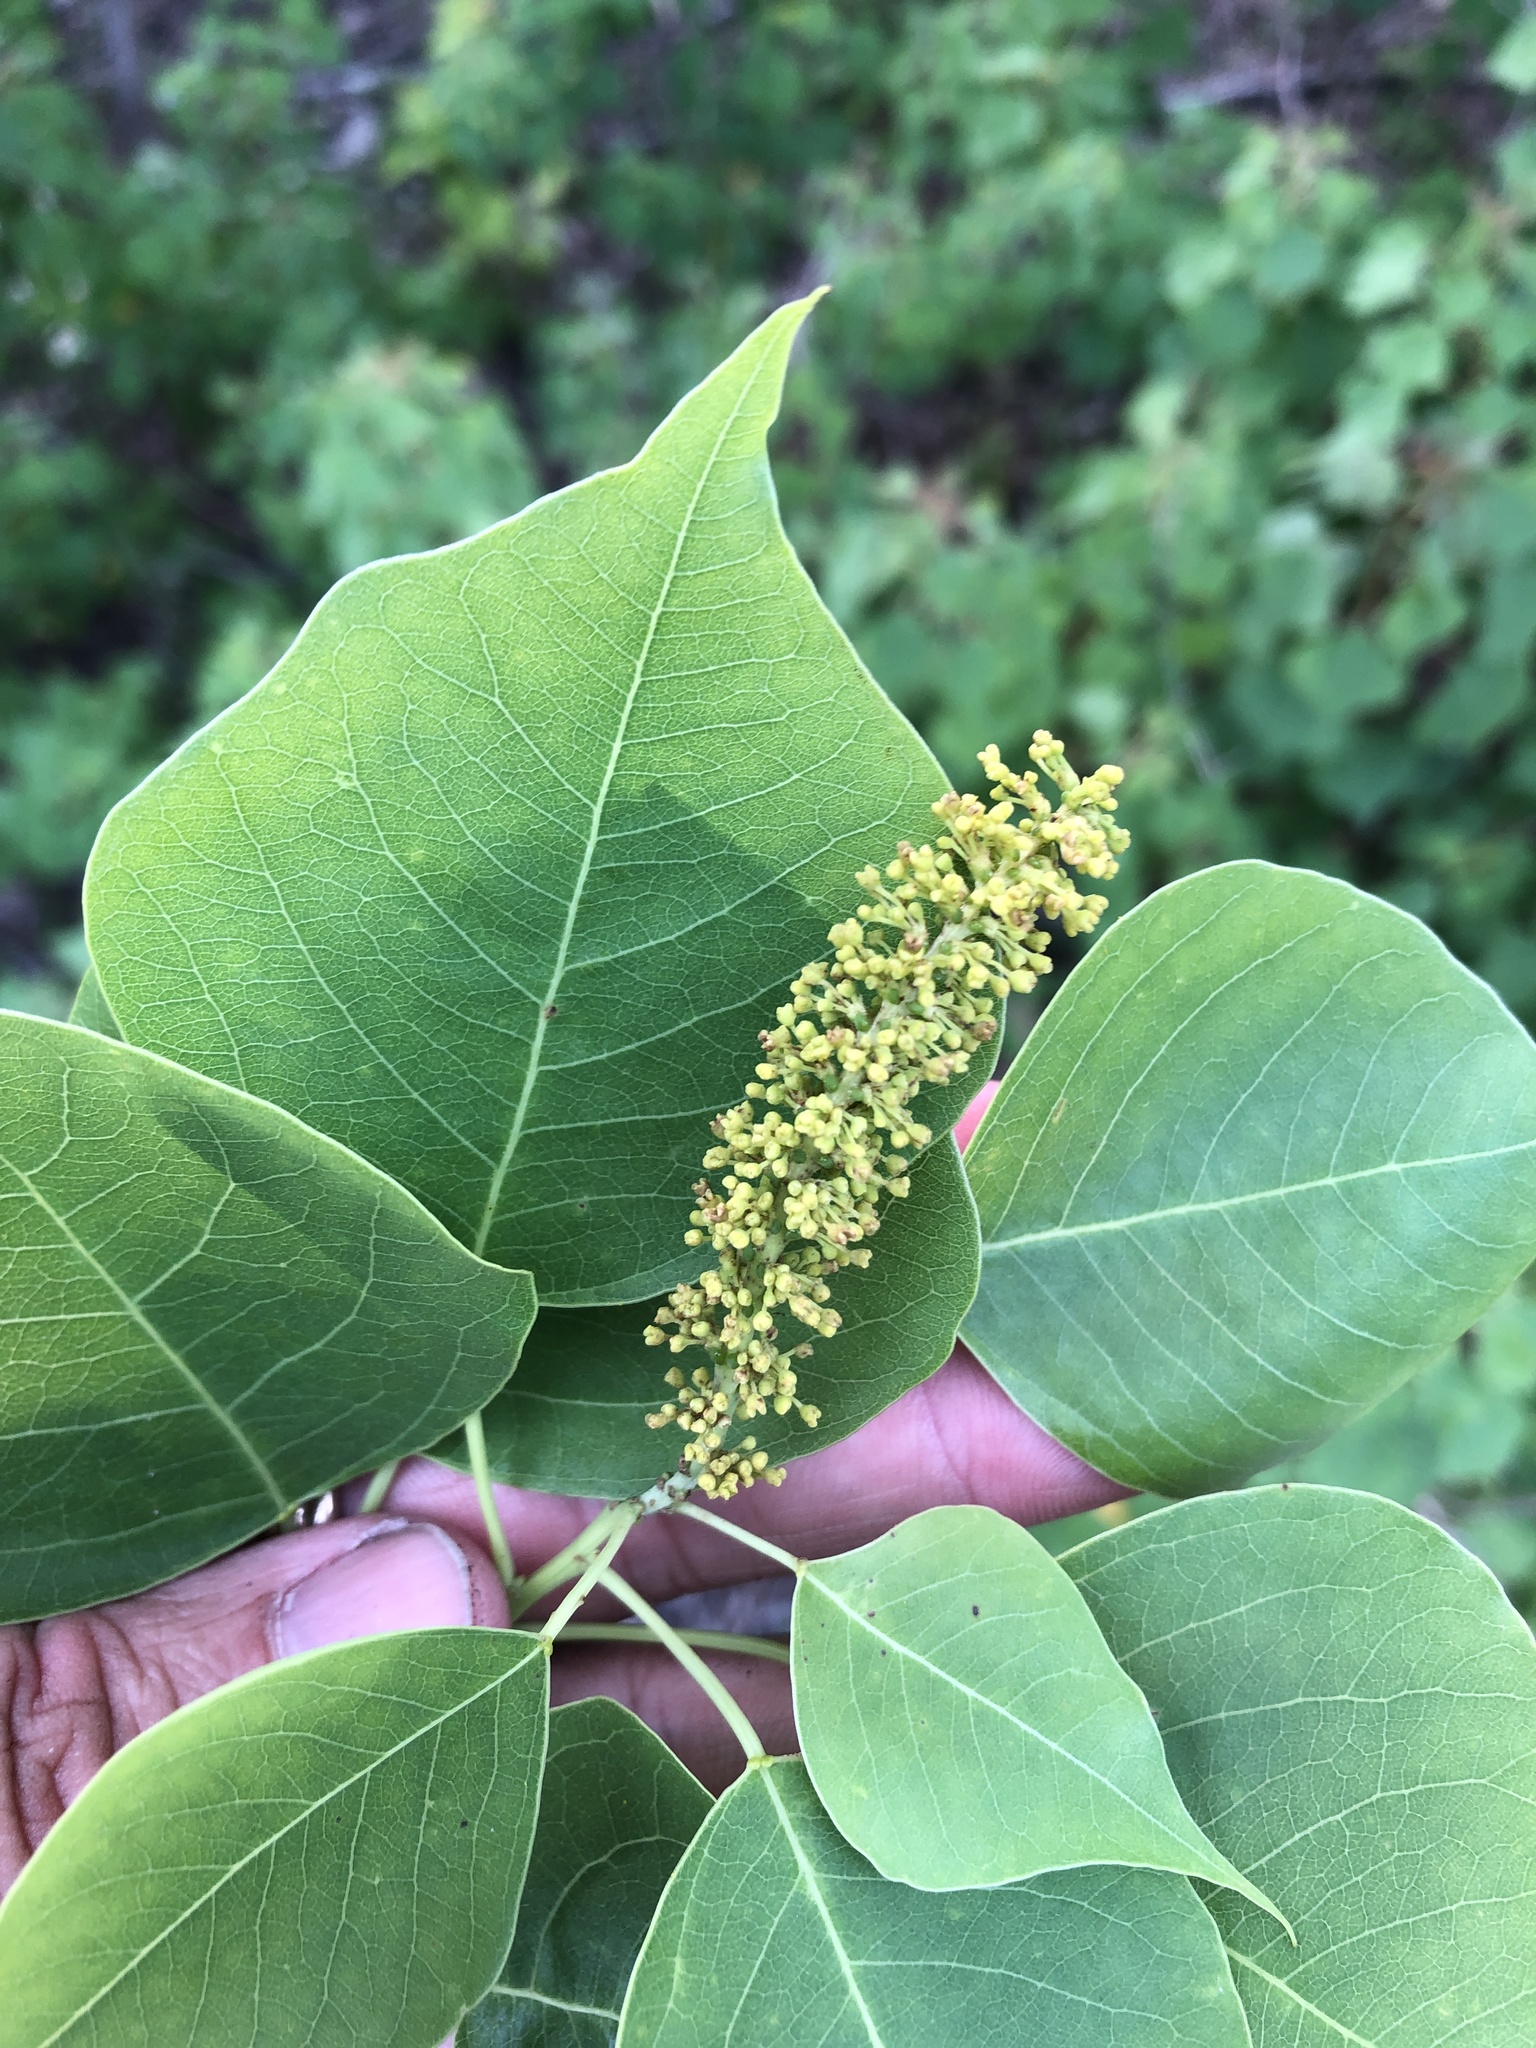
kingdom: Plantae
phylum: Tracheophyta
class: Magnoliopsida
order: Malpighiales
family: Euphorbiaceae
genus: Triadica
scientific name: Triadica sebifera
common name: Chinese tallow
